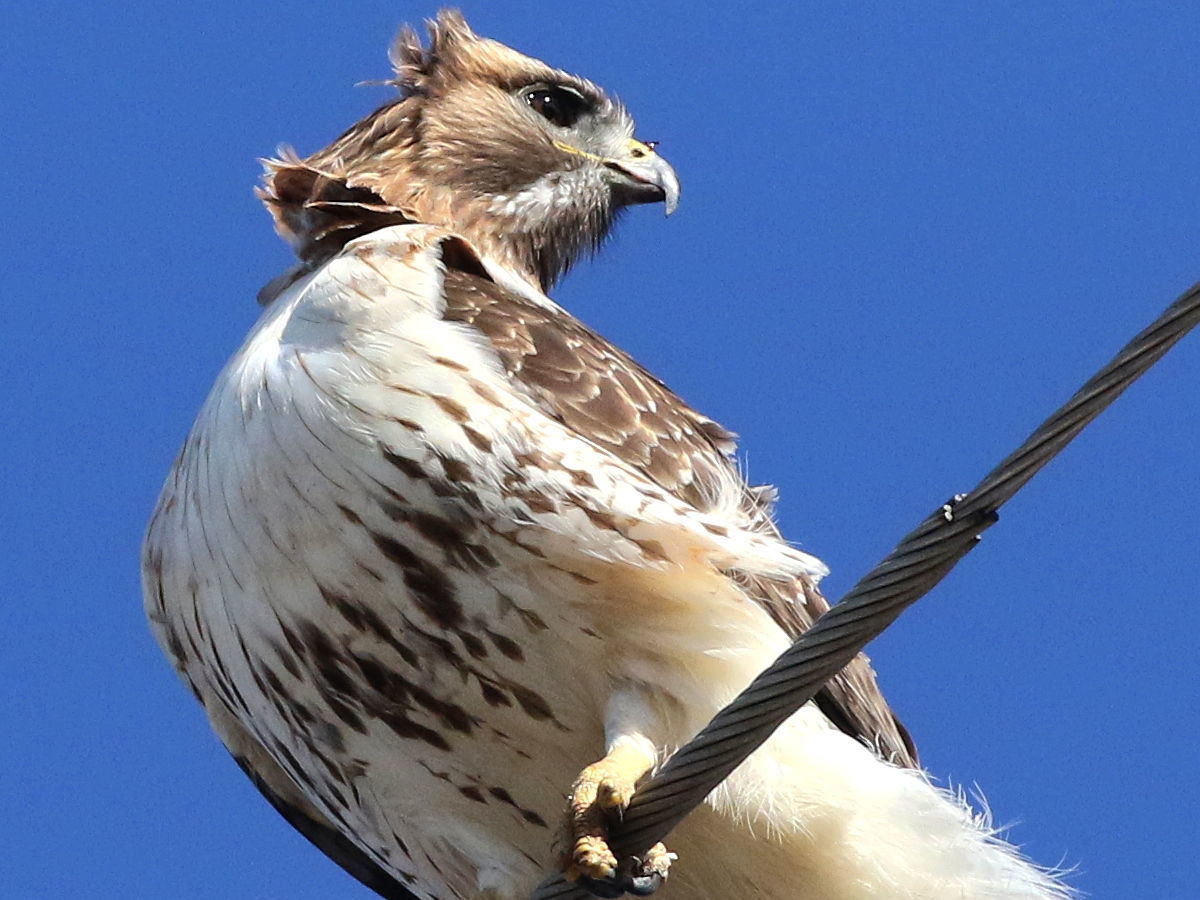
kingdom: Animalia
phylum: Chordata
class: Aves
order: Accipitriformes
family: Accipitridae
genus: Buteo
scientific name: Buteo jamaicensis
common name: Red-tailed hawk
